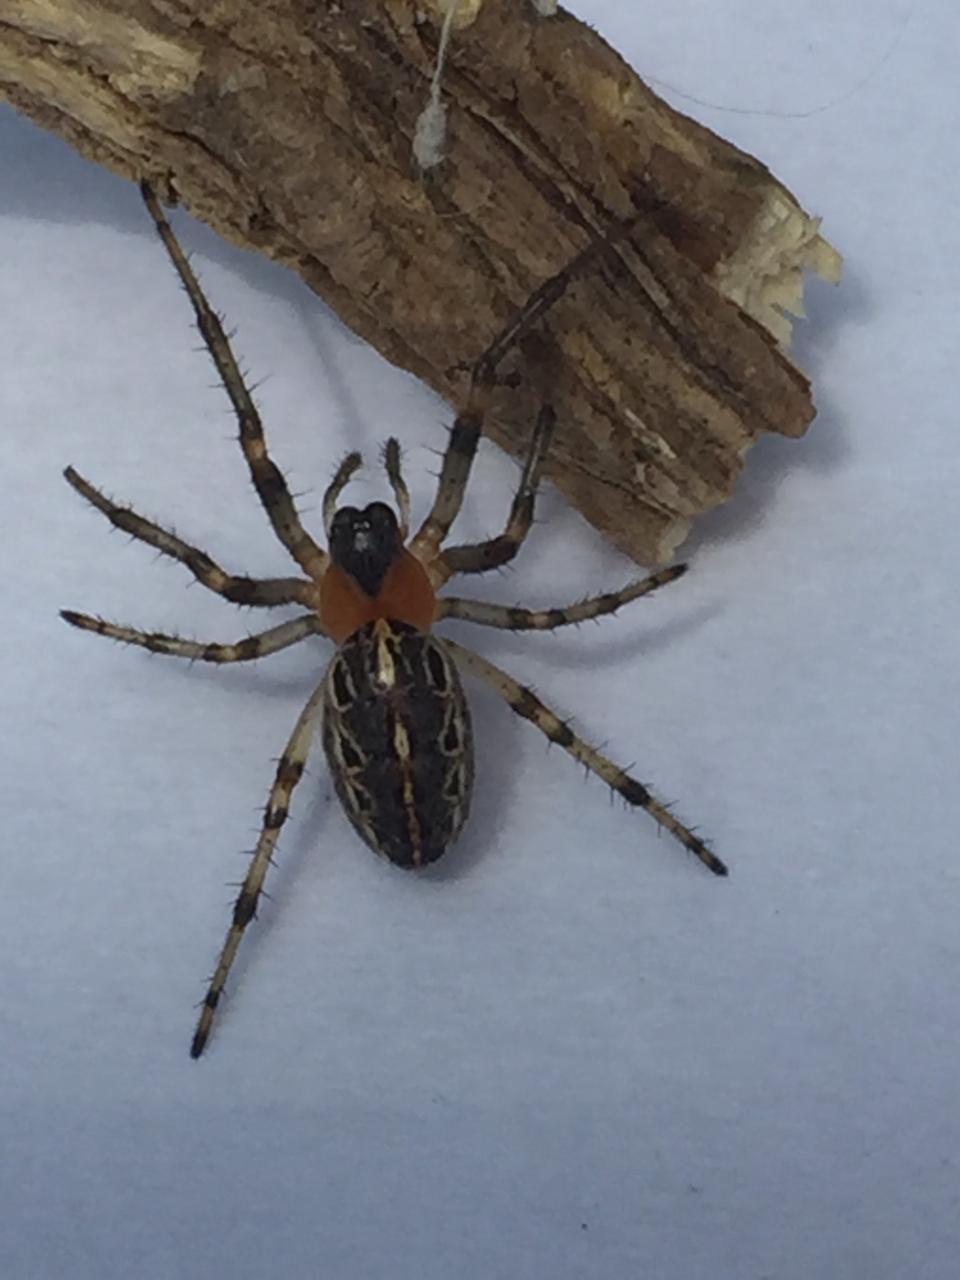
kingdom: Animalia
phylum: Arthropoda
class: Arachnida
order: Araneae
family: Araneidae
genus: Alpaida
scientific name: Alpaida veniliae
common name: Orb weavers
